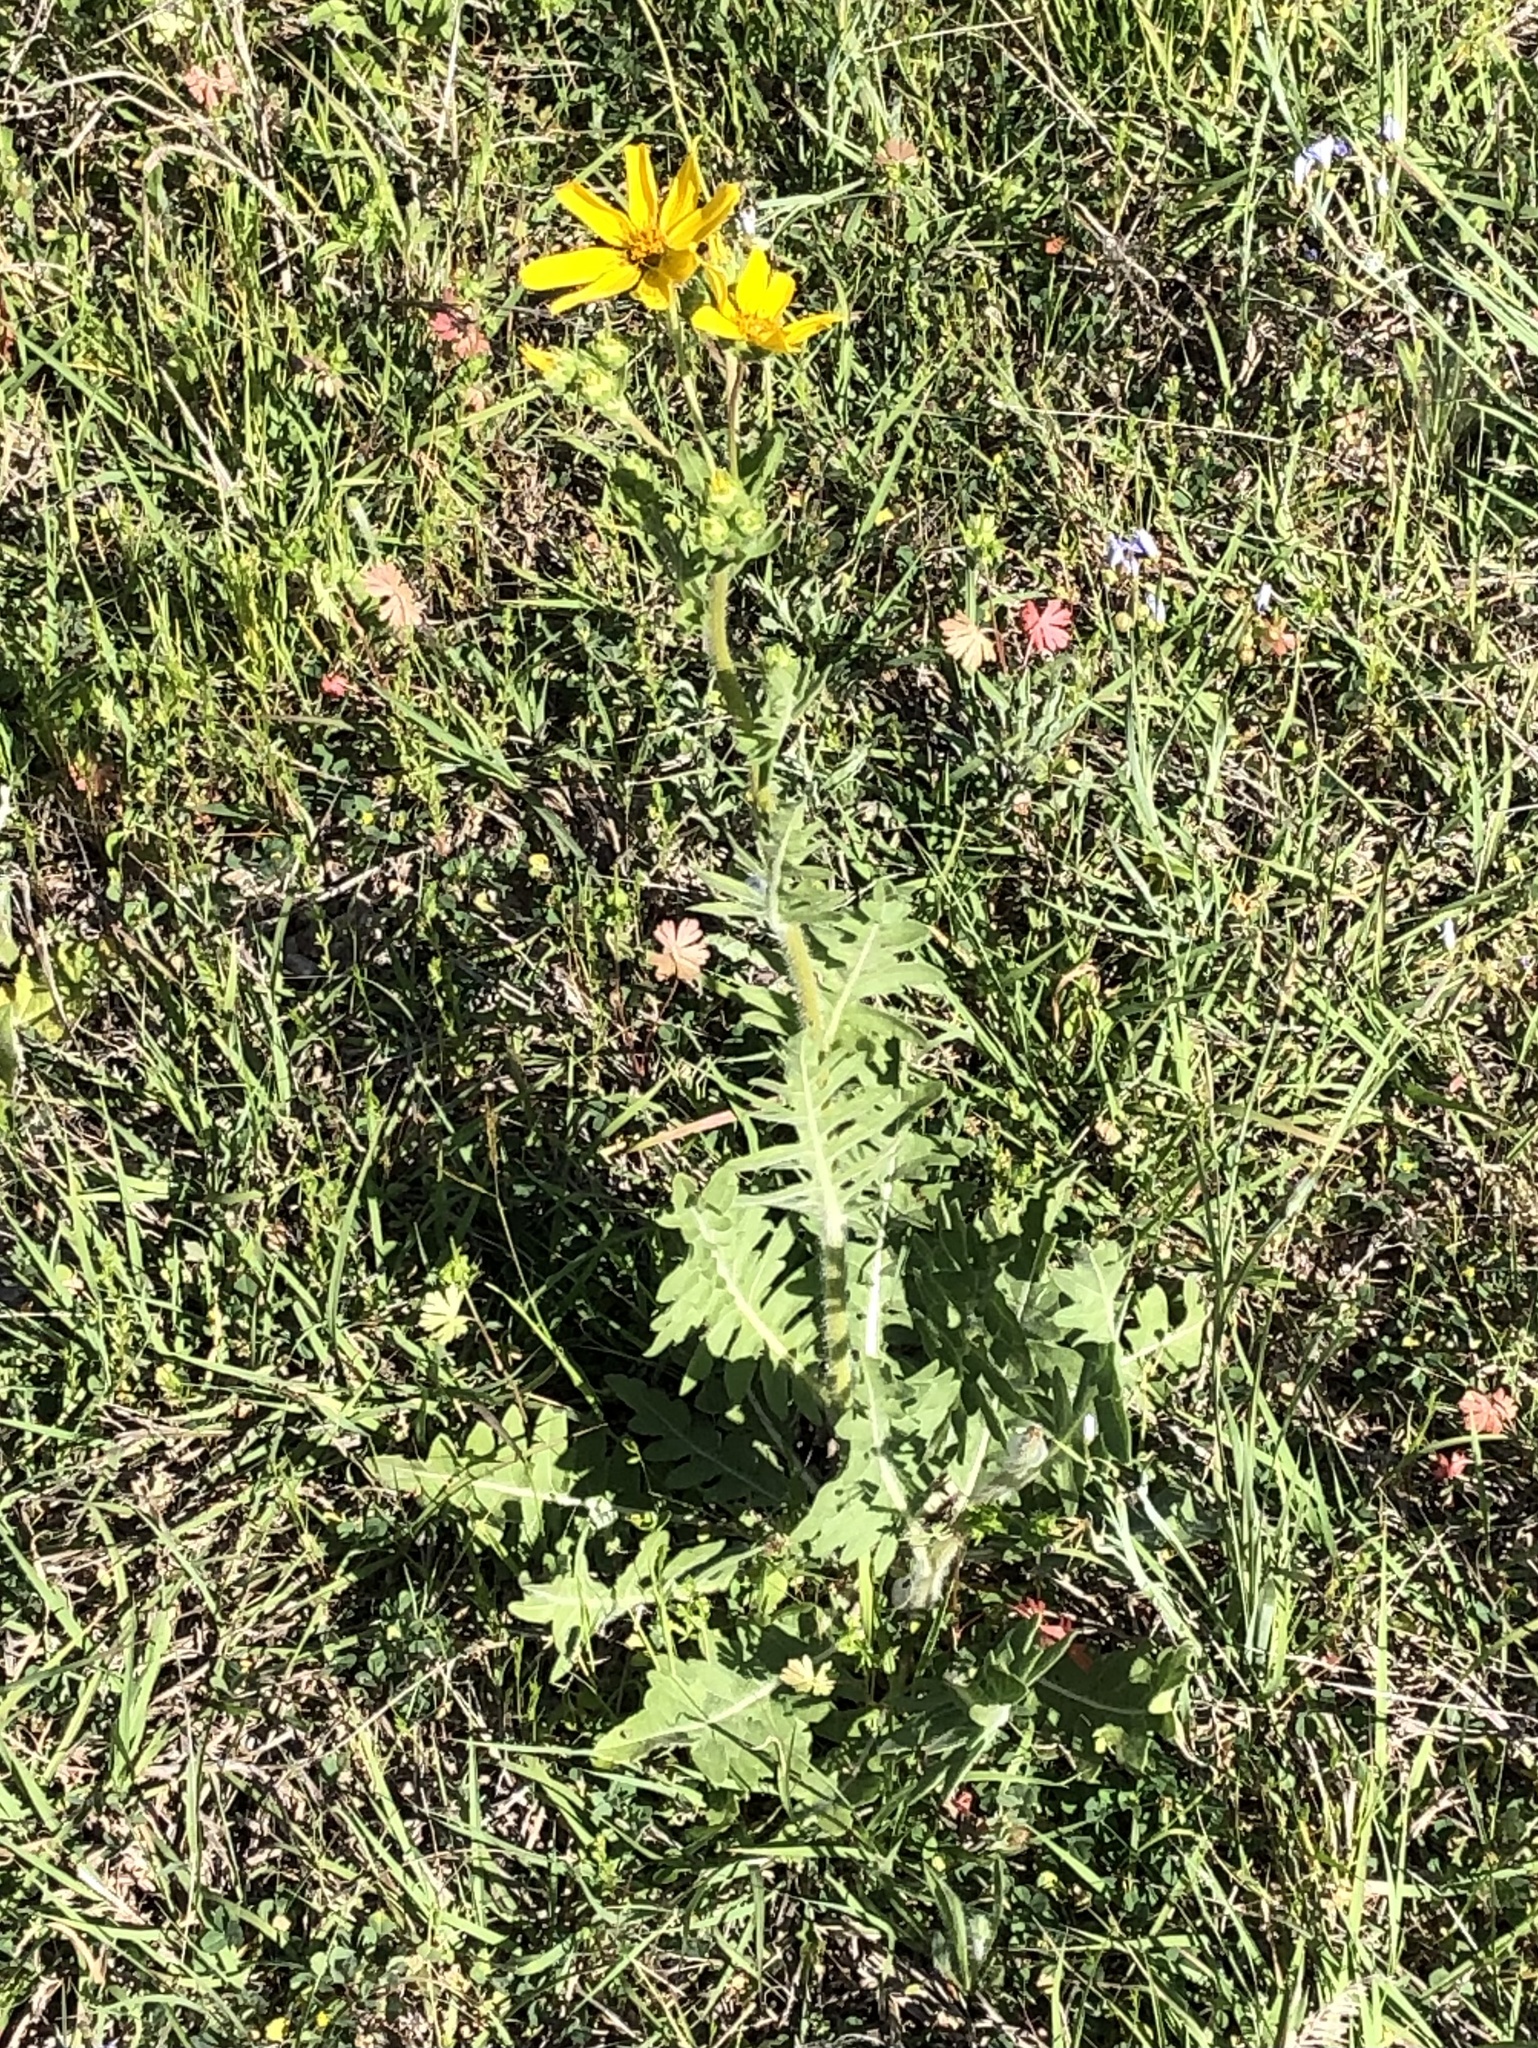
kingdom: Plantae
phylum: Tracheophyta
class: Magnoliopsida
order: Asterales
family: Asteraceae
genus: Engelmannia
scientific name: Engelmannia peristenia
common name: Engelmann's daisy
